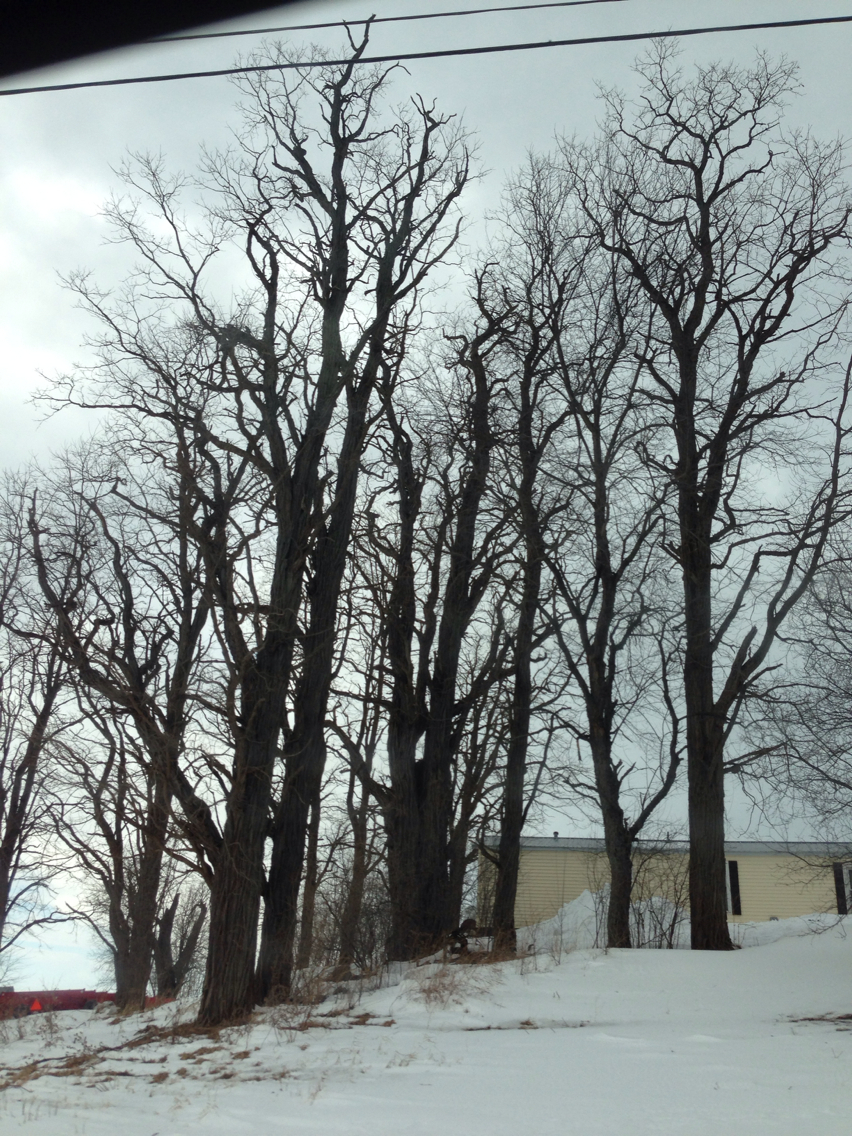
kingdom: Plantae
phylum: Tracheophyta
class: Magnoliopsida
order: Fabales
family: Fabaceae
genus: Robinia
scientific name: Robinia pseudoacacia
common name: Black locust
